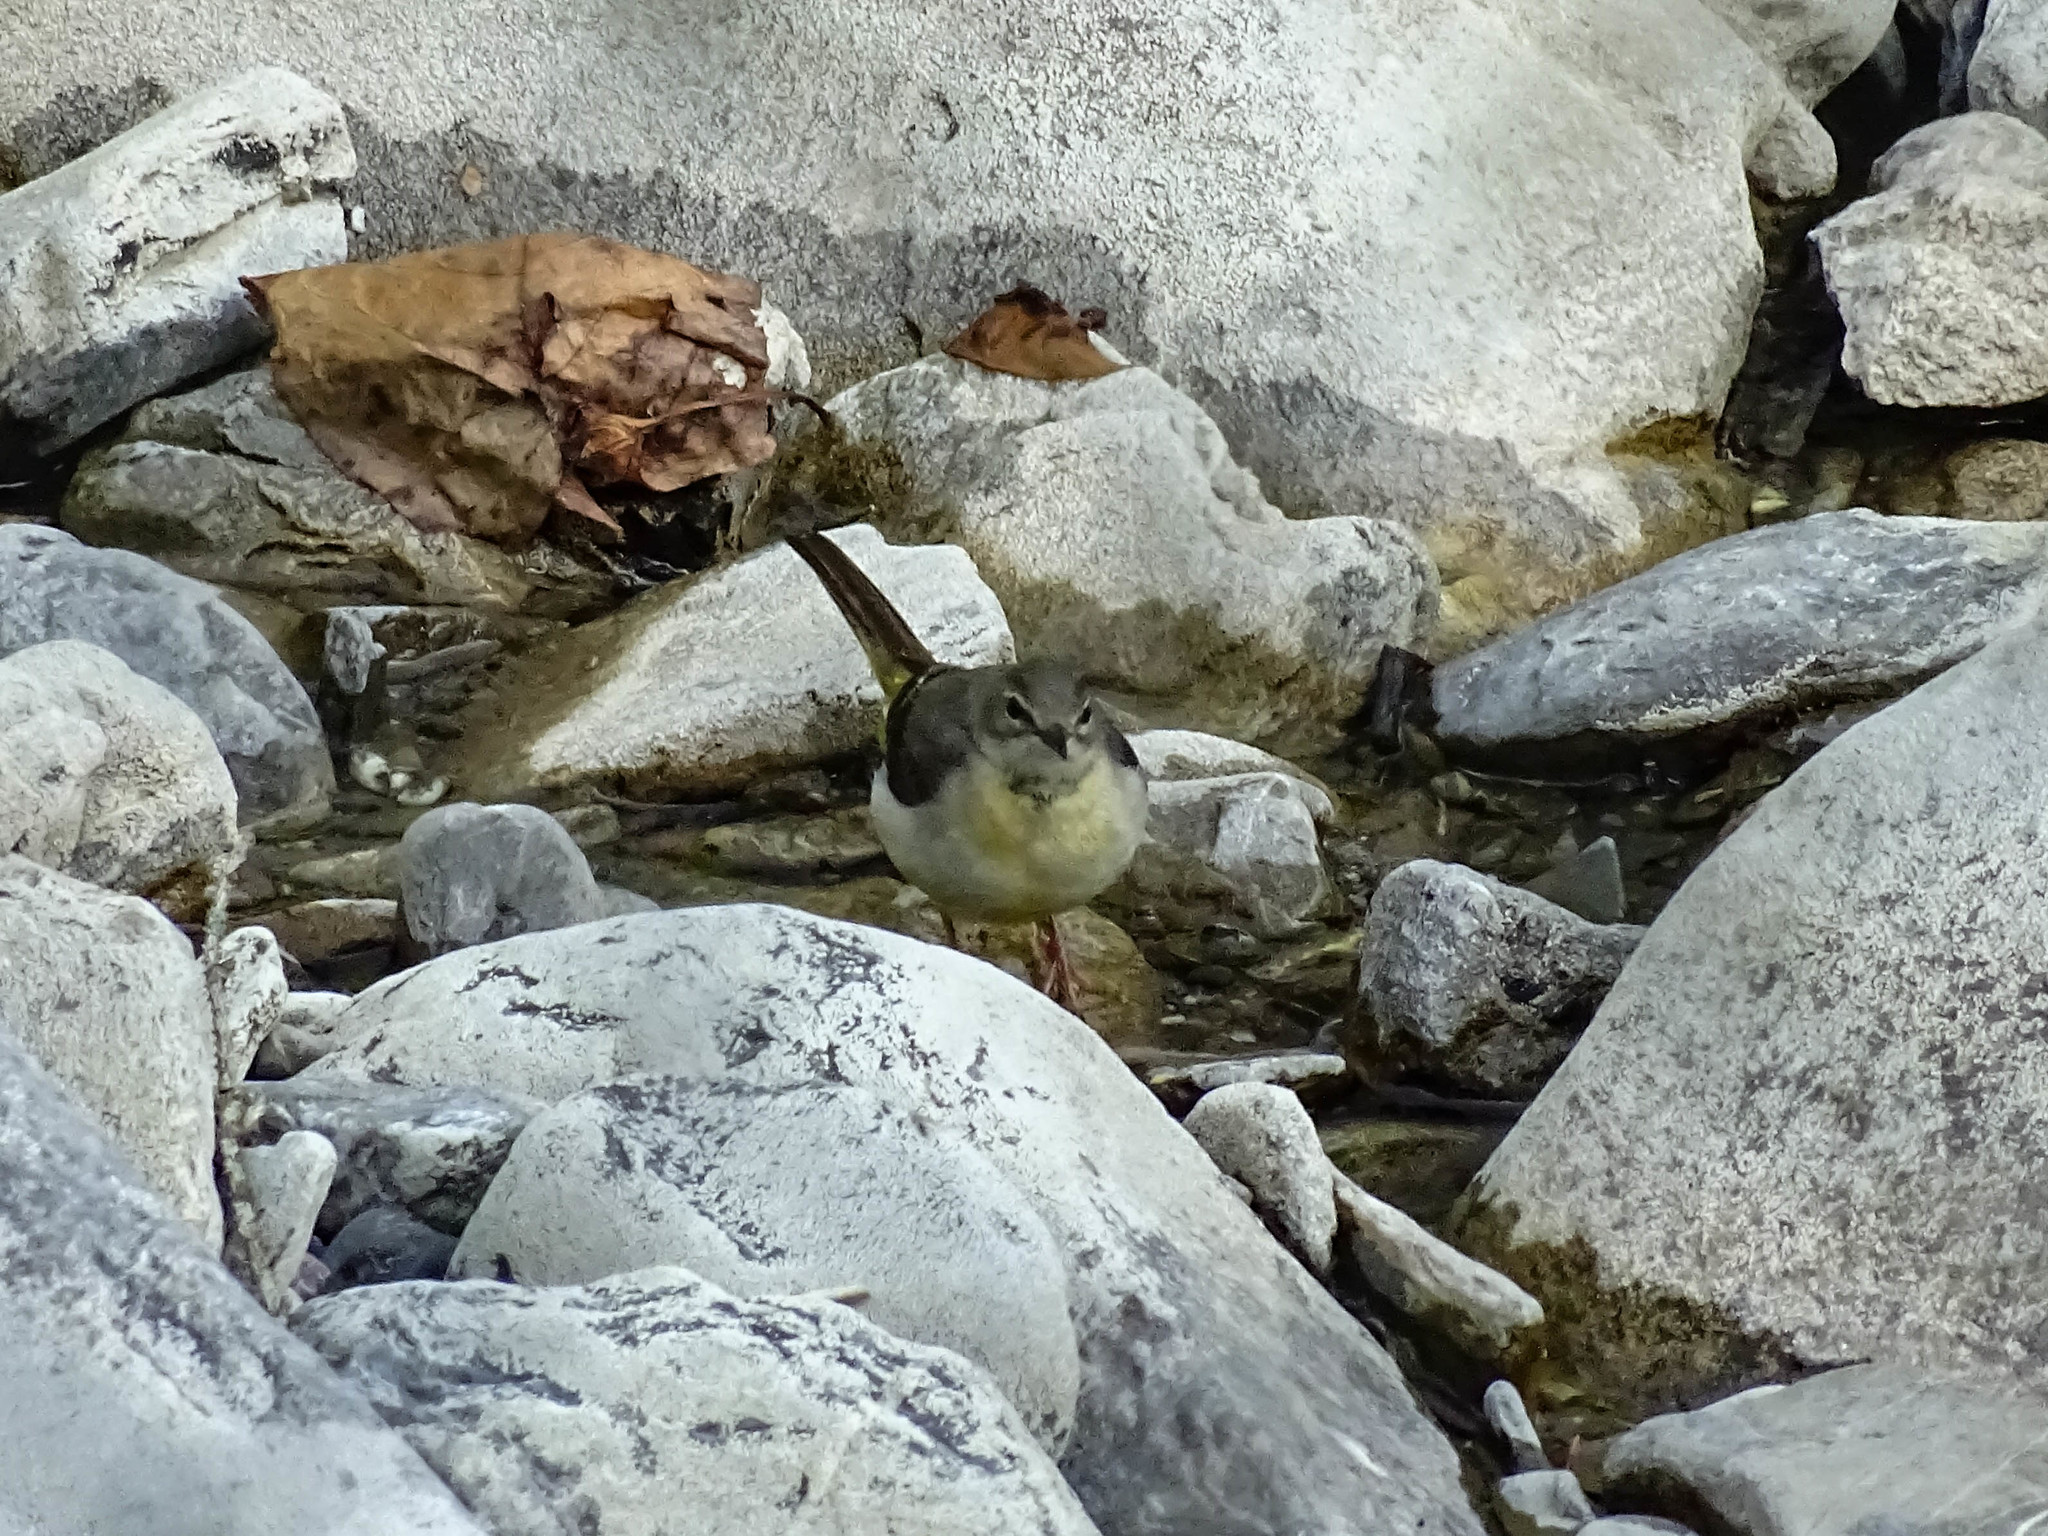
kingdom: Animalia
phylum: Chordata
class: Aves
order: Passeriformes
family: Motacillidae
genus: Motacilla
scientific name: Motacilla cinerea
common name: Grey wagtail
